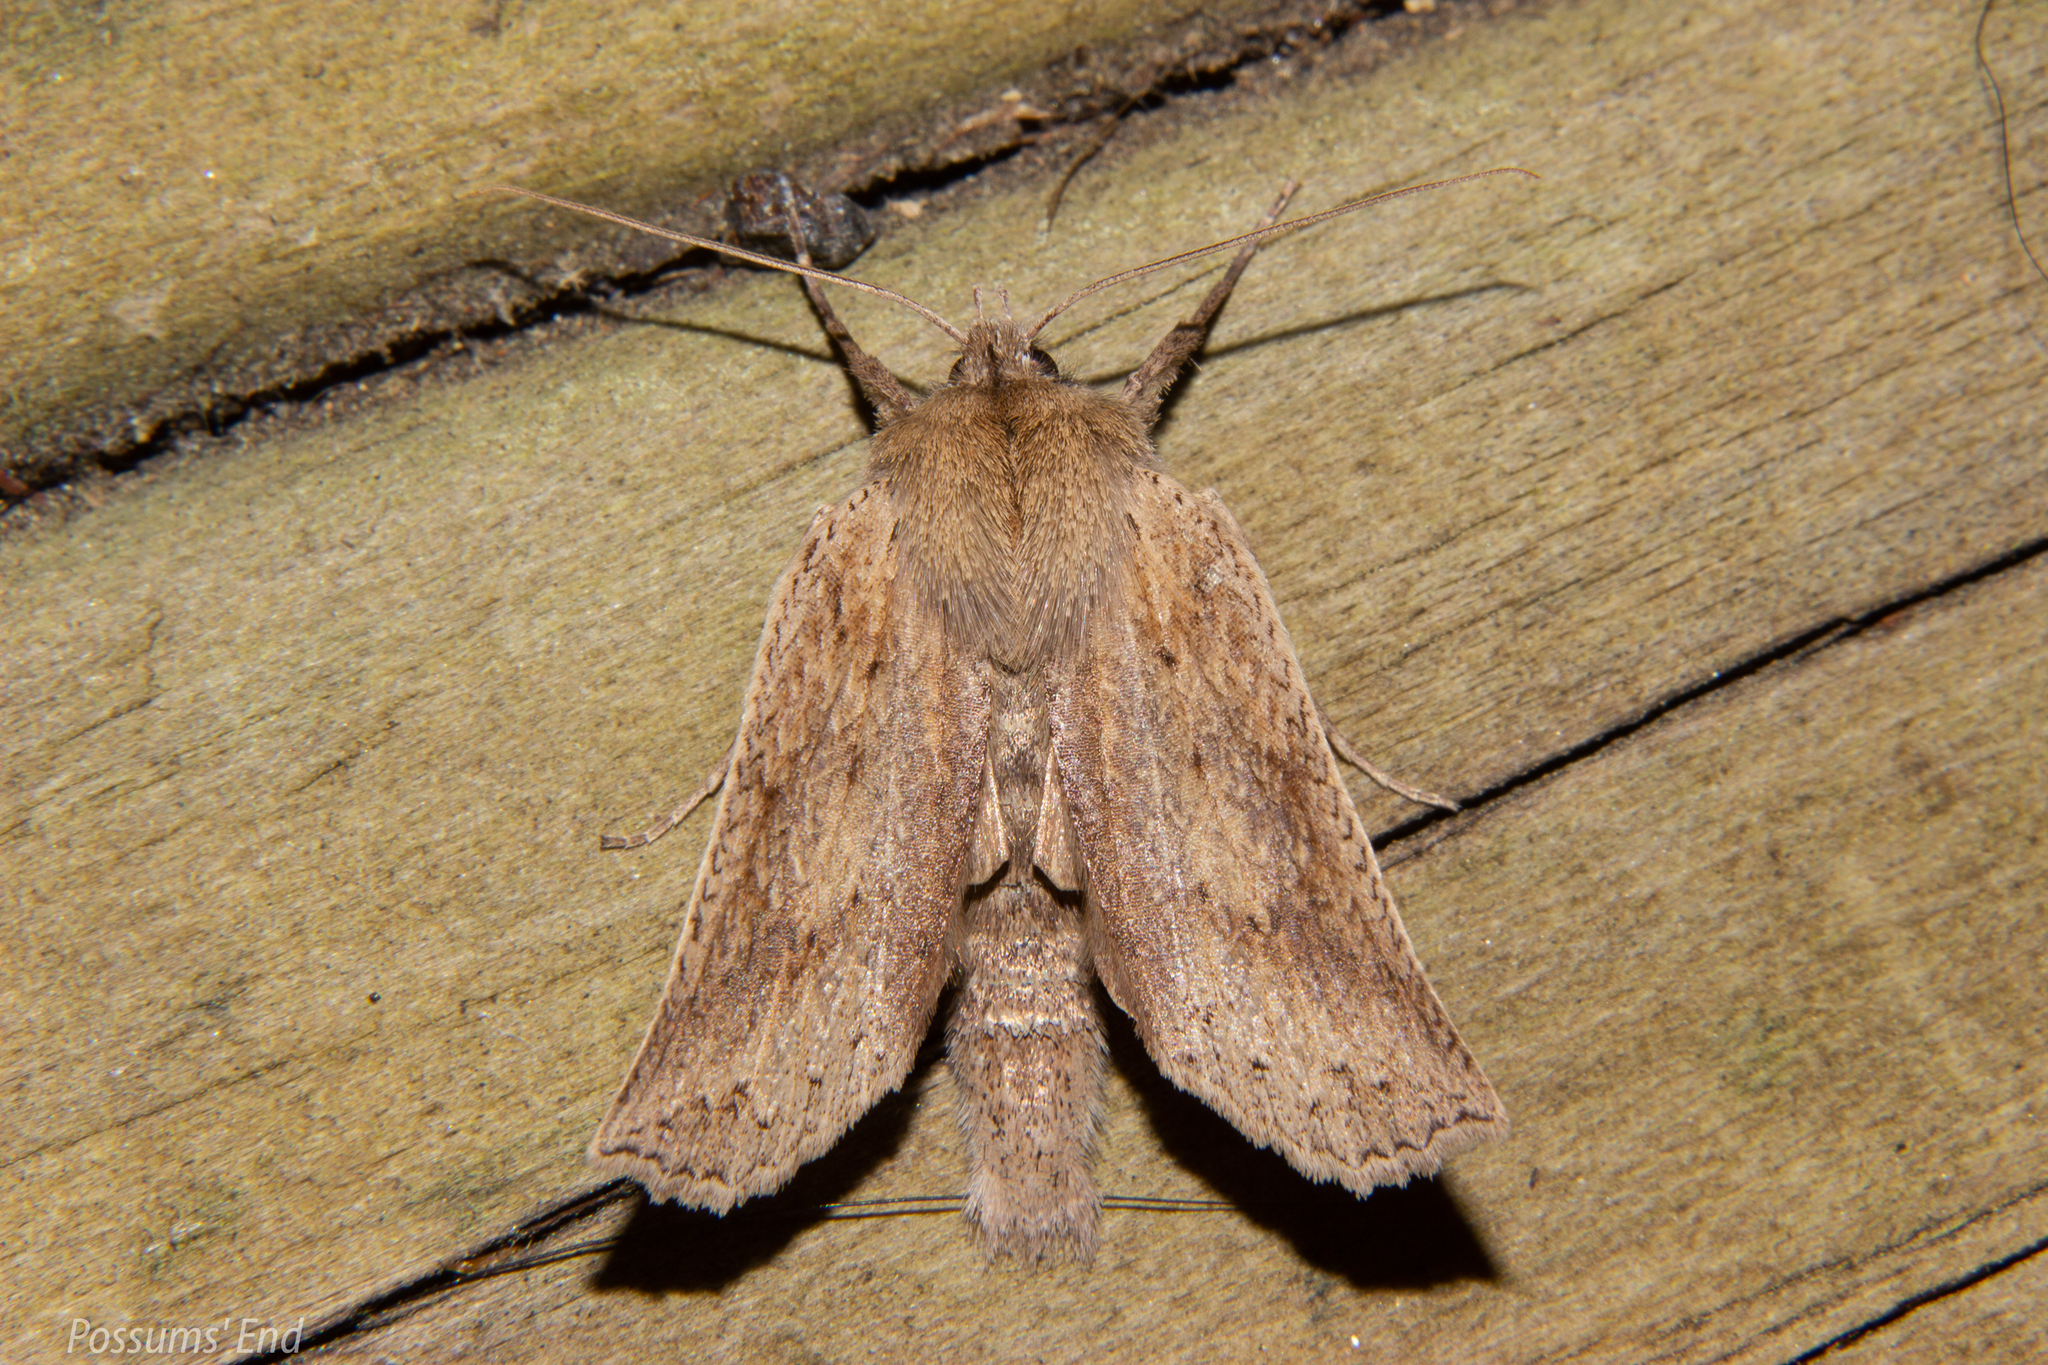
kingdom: Animalia
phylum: Arthropoda
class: Insecta
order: Lepidoptera
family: Geometridae
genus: Declana
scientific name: Declana leptomera
